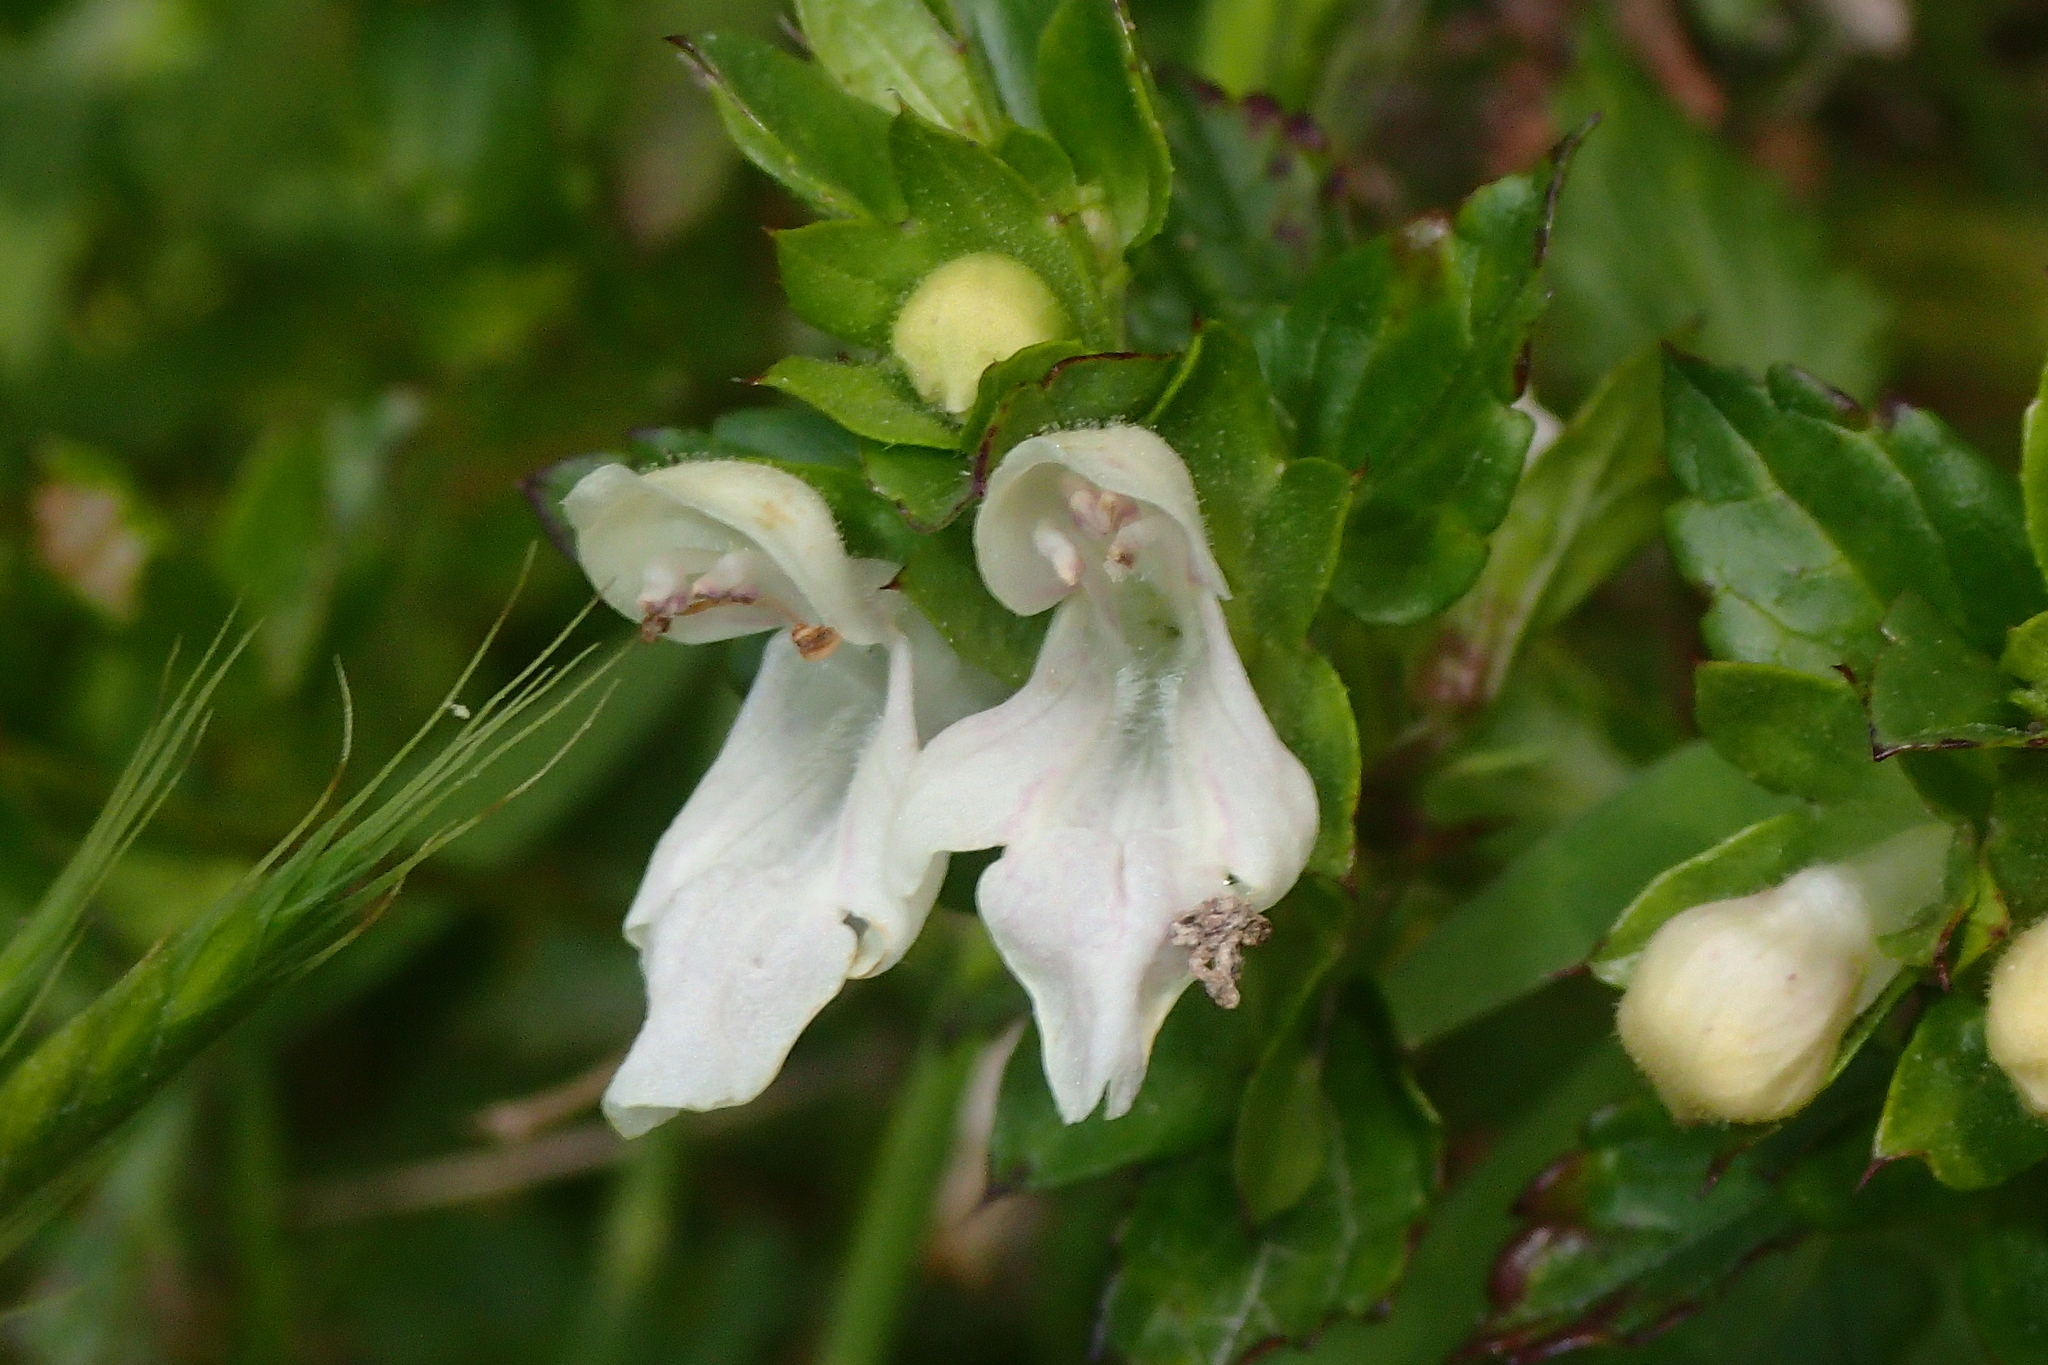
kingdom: Plantae
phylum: Tracheophyta
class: Magnoliopsida
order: Lamiales
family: Lamiaceae
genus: Prasium
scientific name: Prasium majus
